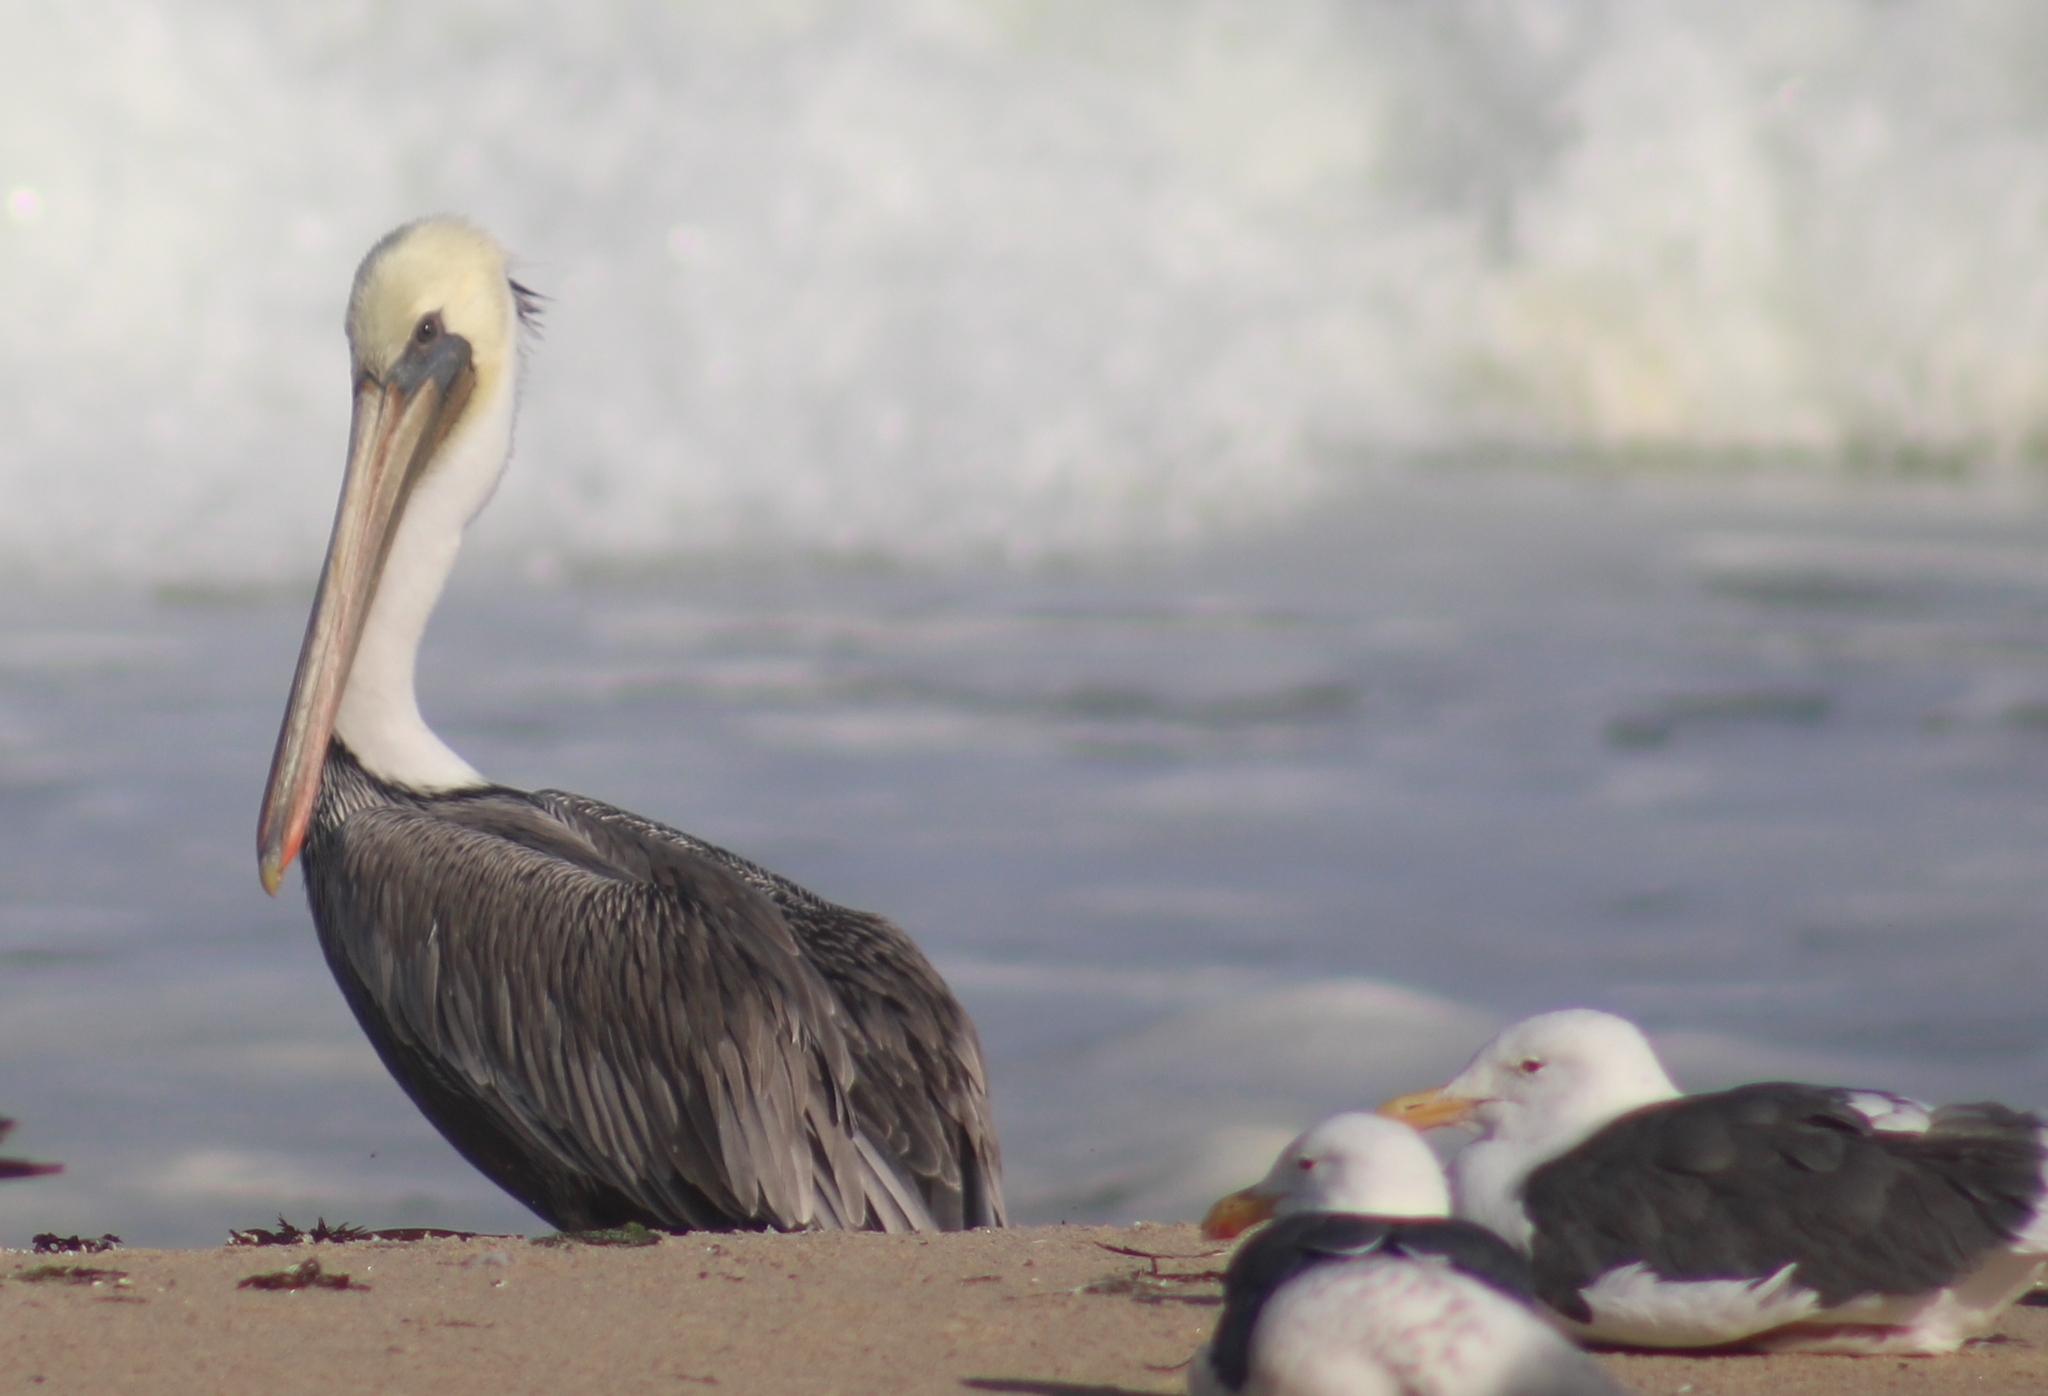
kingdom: Animalia
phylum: Chordata
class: Aves
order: Pelecaniformes
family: Pelecanidae
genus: Pelecanus
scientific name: Pelecanus occidentalis
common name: Brown pelican
